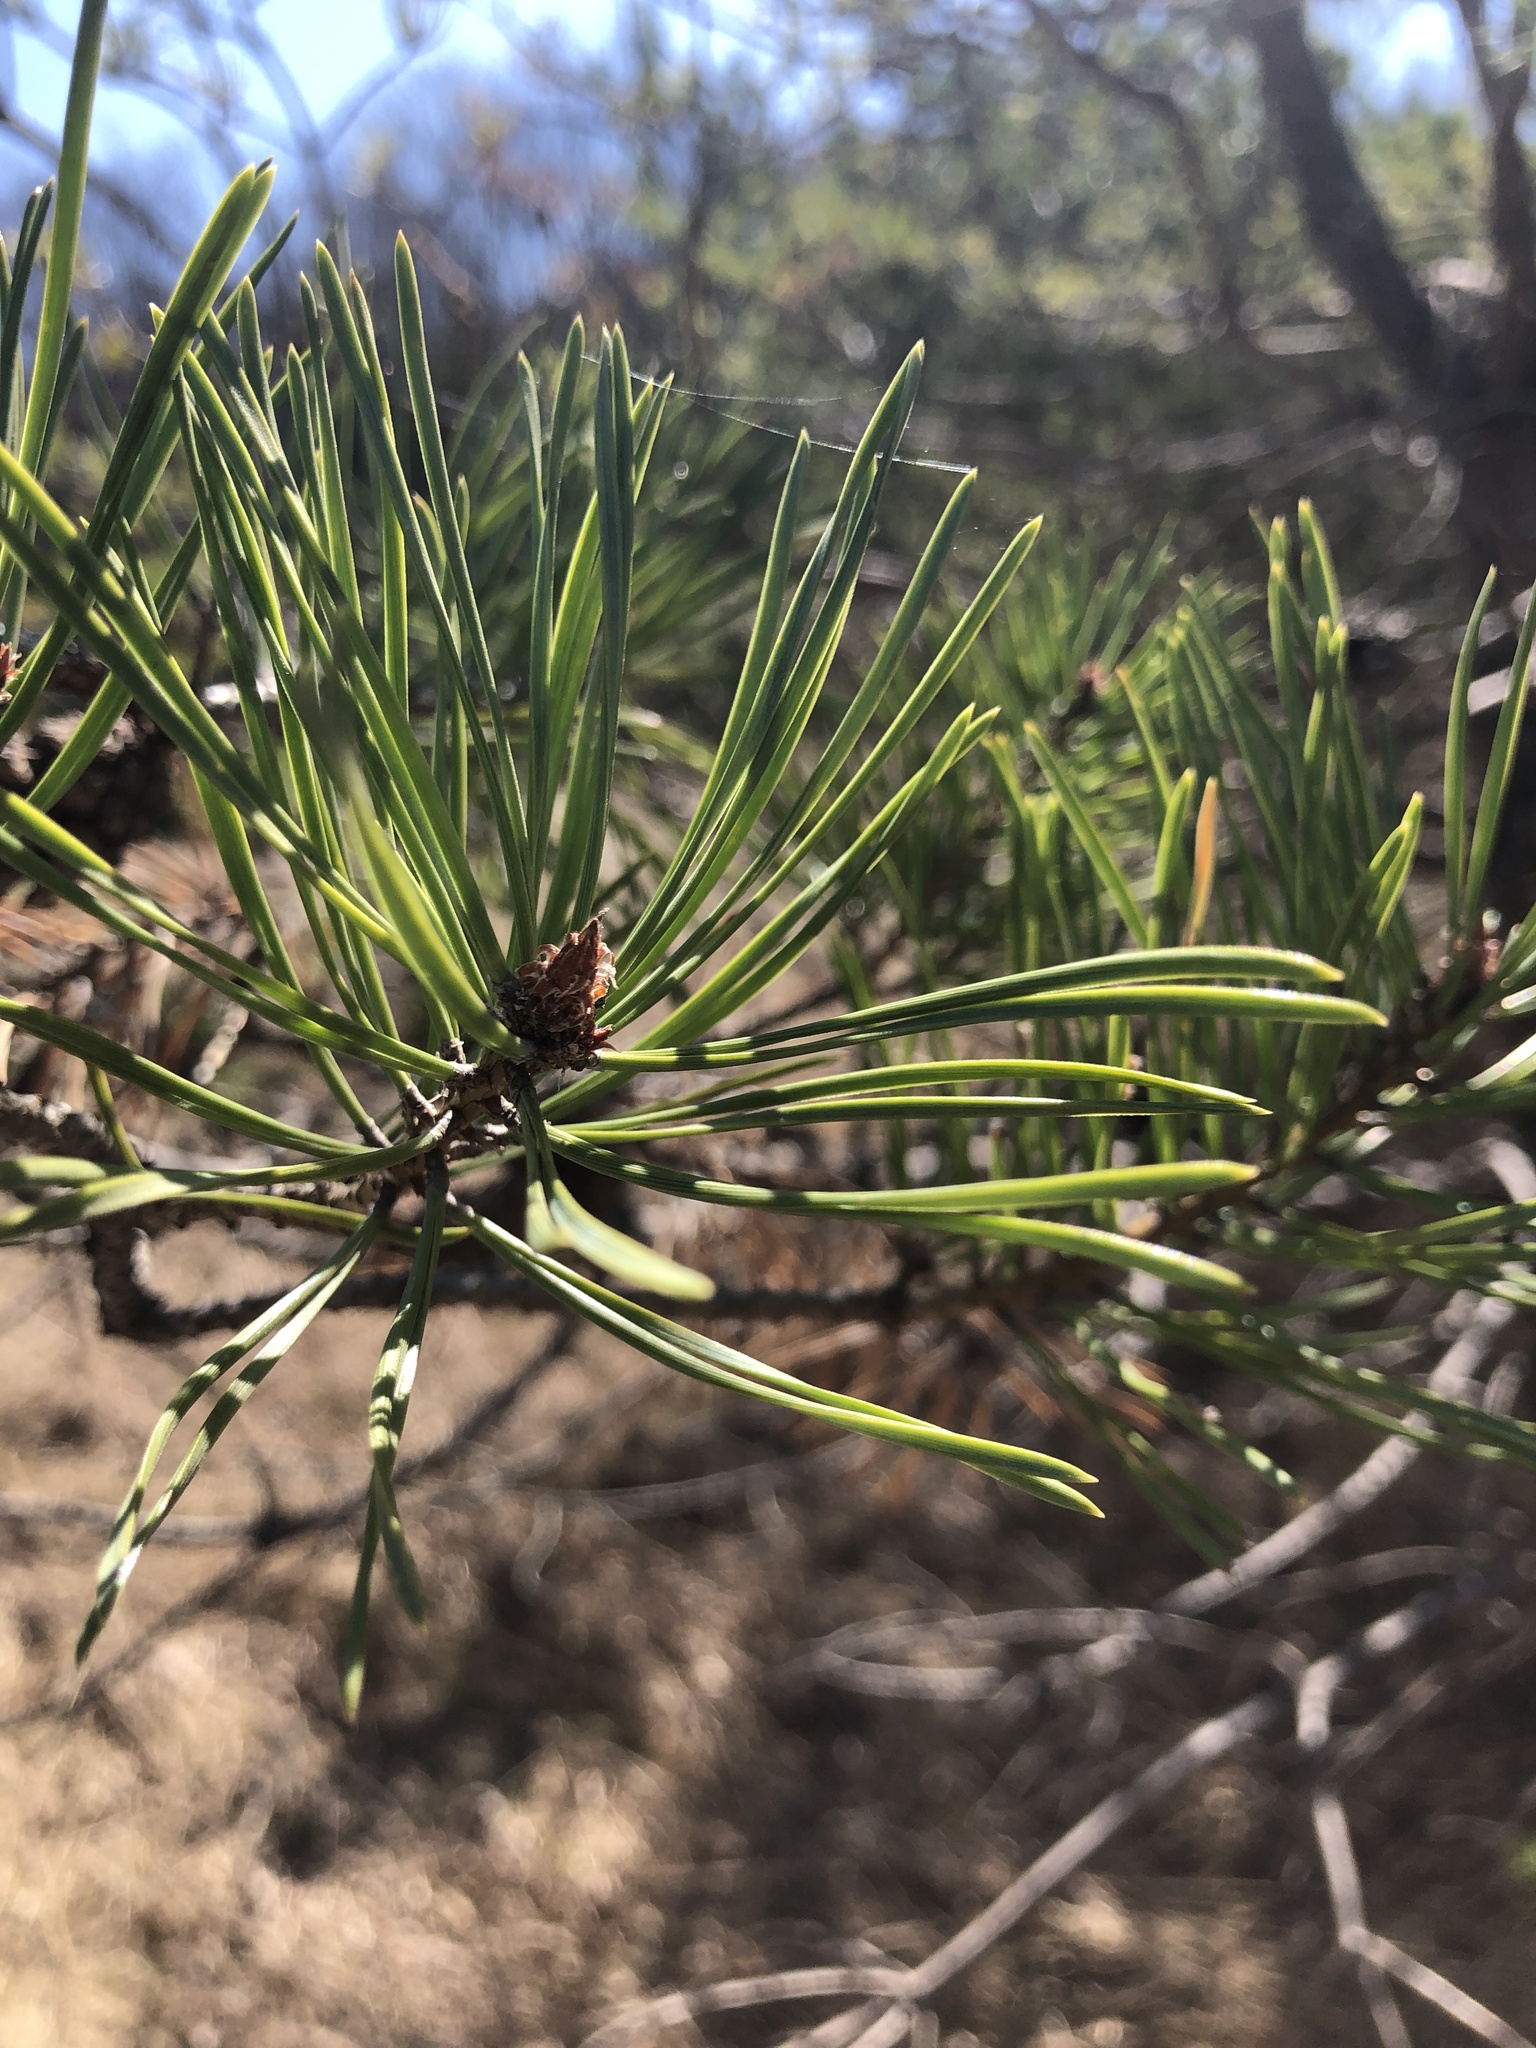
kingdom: Plantae
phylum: Tracheophyta
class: Pinopsida
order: Pinales
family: Pinaceae
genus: Pinus
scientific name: Pinus sylvestris
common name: Scots pine
